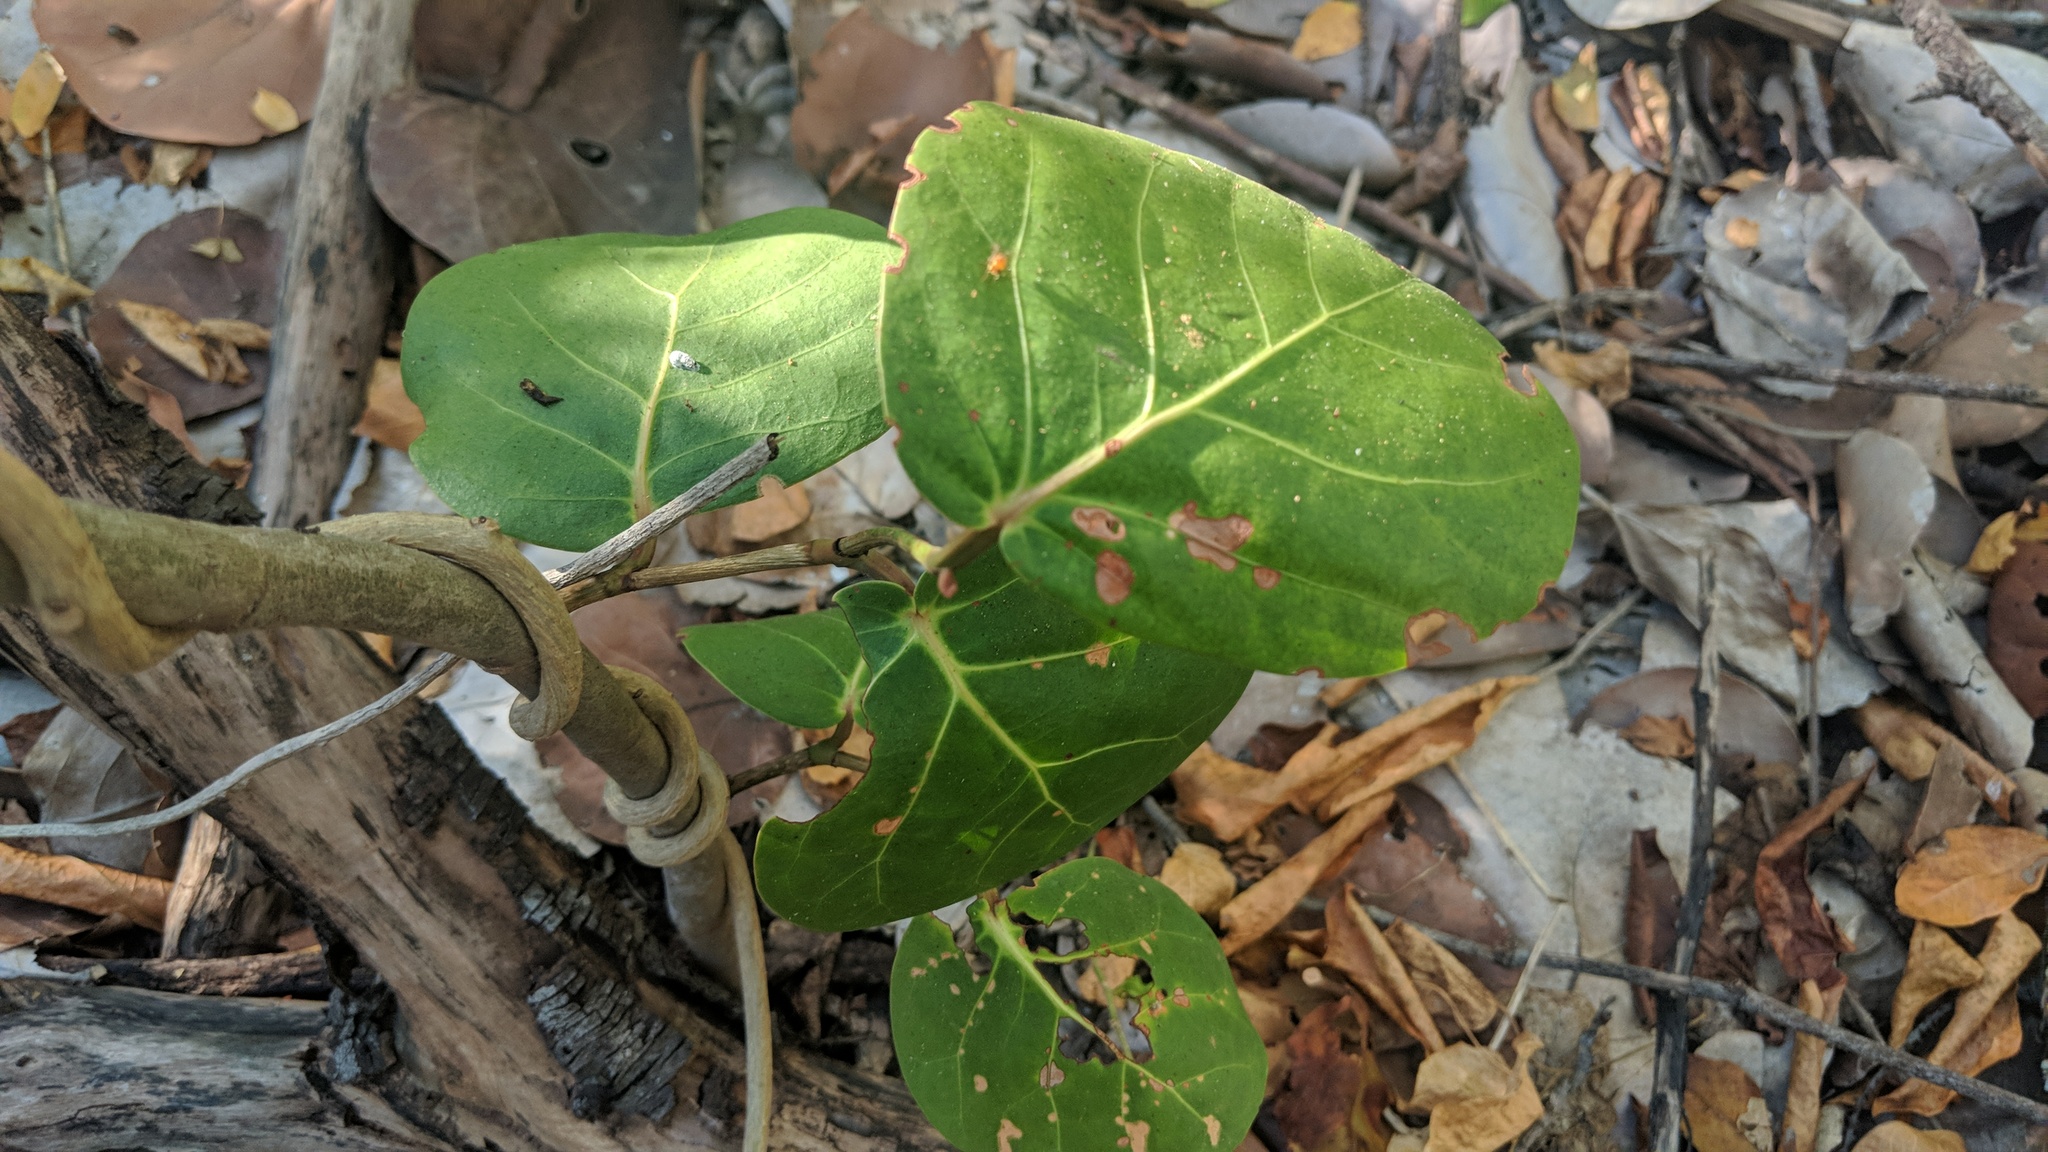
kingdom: Plantae
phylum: Tracheophyta
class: Magnoliopsida
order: Caryophyllales
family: Polygonaceae
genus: Coccoloba
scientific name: Coccoloba uvifera
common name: Seagrape
